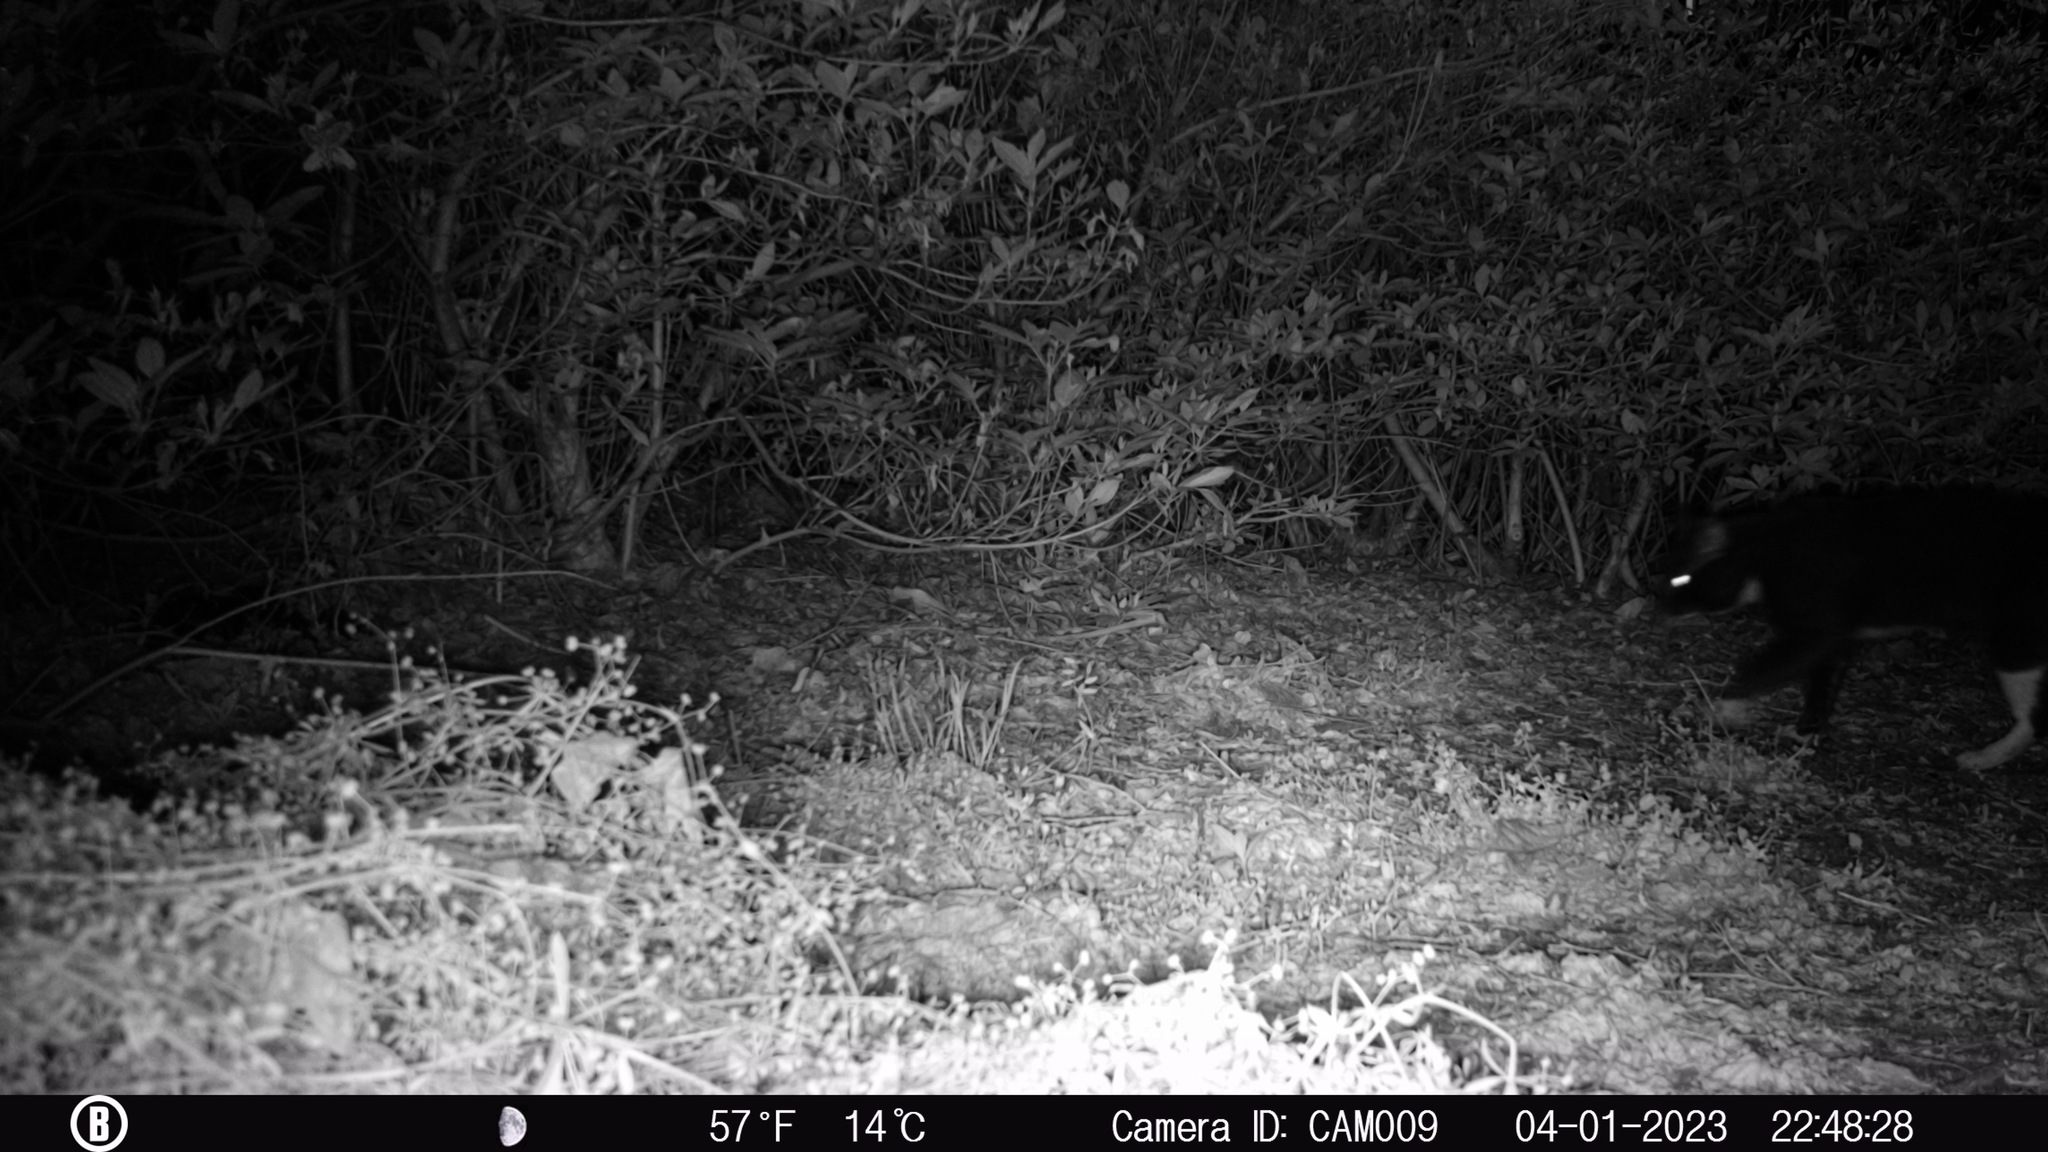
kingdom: Animalia
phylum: Chordata
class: Mammalia
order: Carnivora
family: Felidae
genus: Felis
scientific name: Felis catus
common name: Domestic cat
